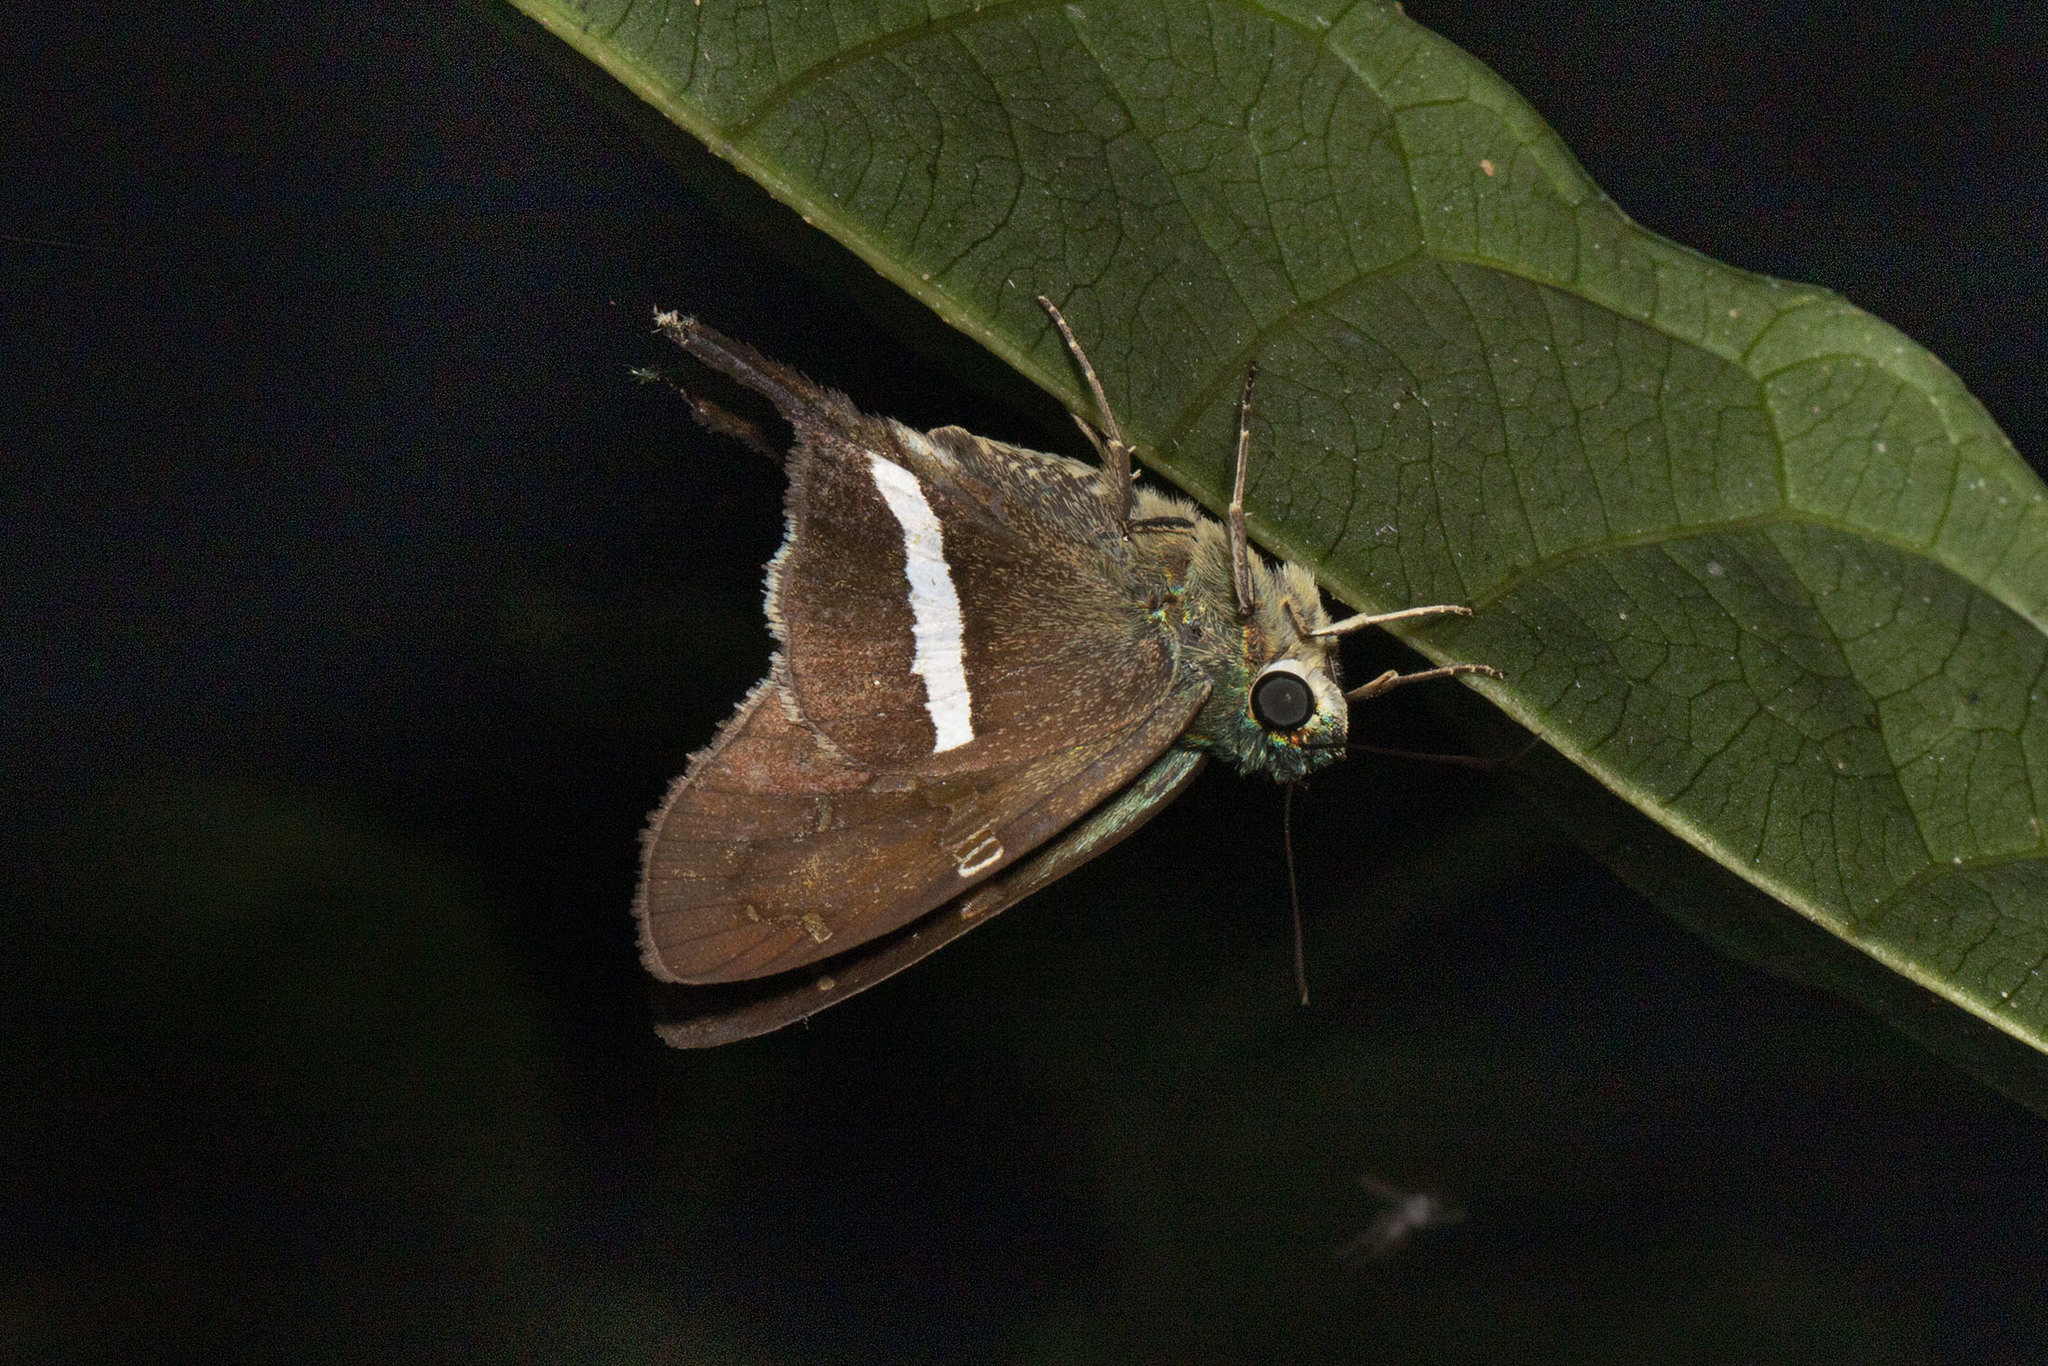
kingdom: Animalia
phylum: Arthropoda
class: Insecta
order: Lepidoptera
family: Hesperiidae
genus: Aguna
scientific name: Aguna
